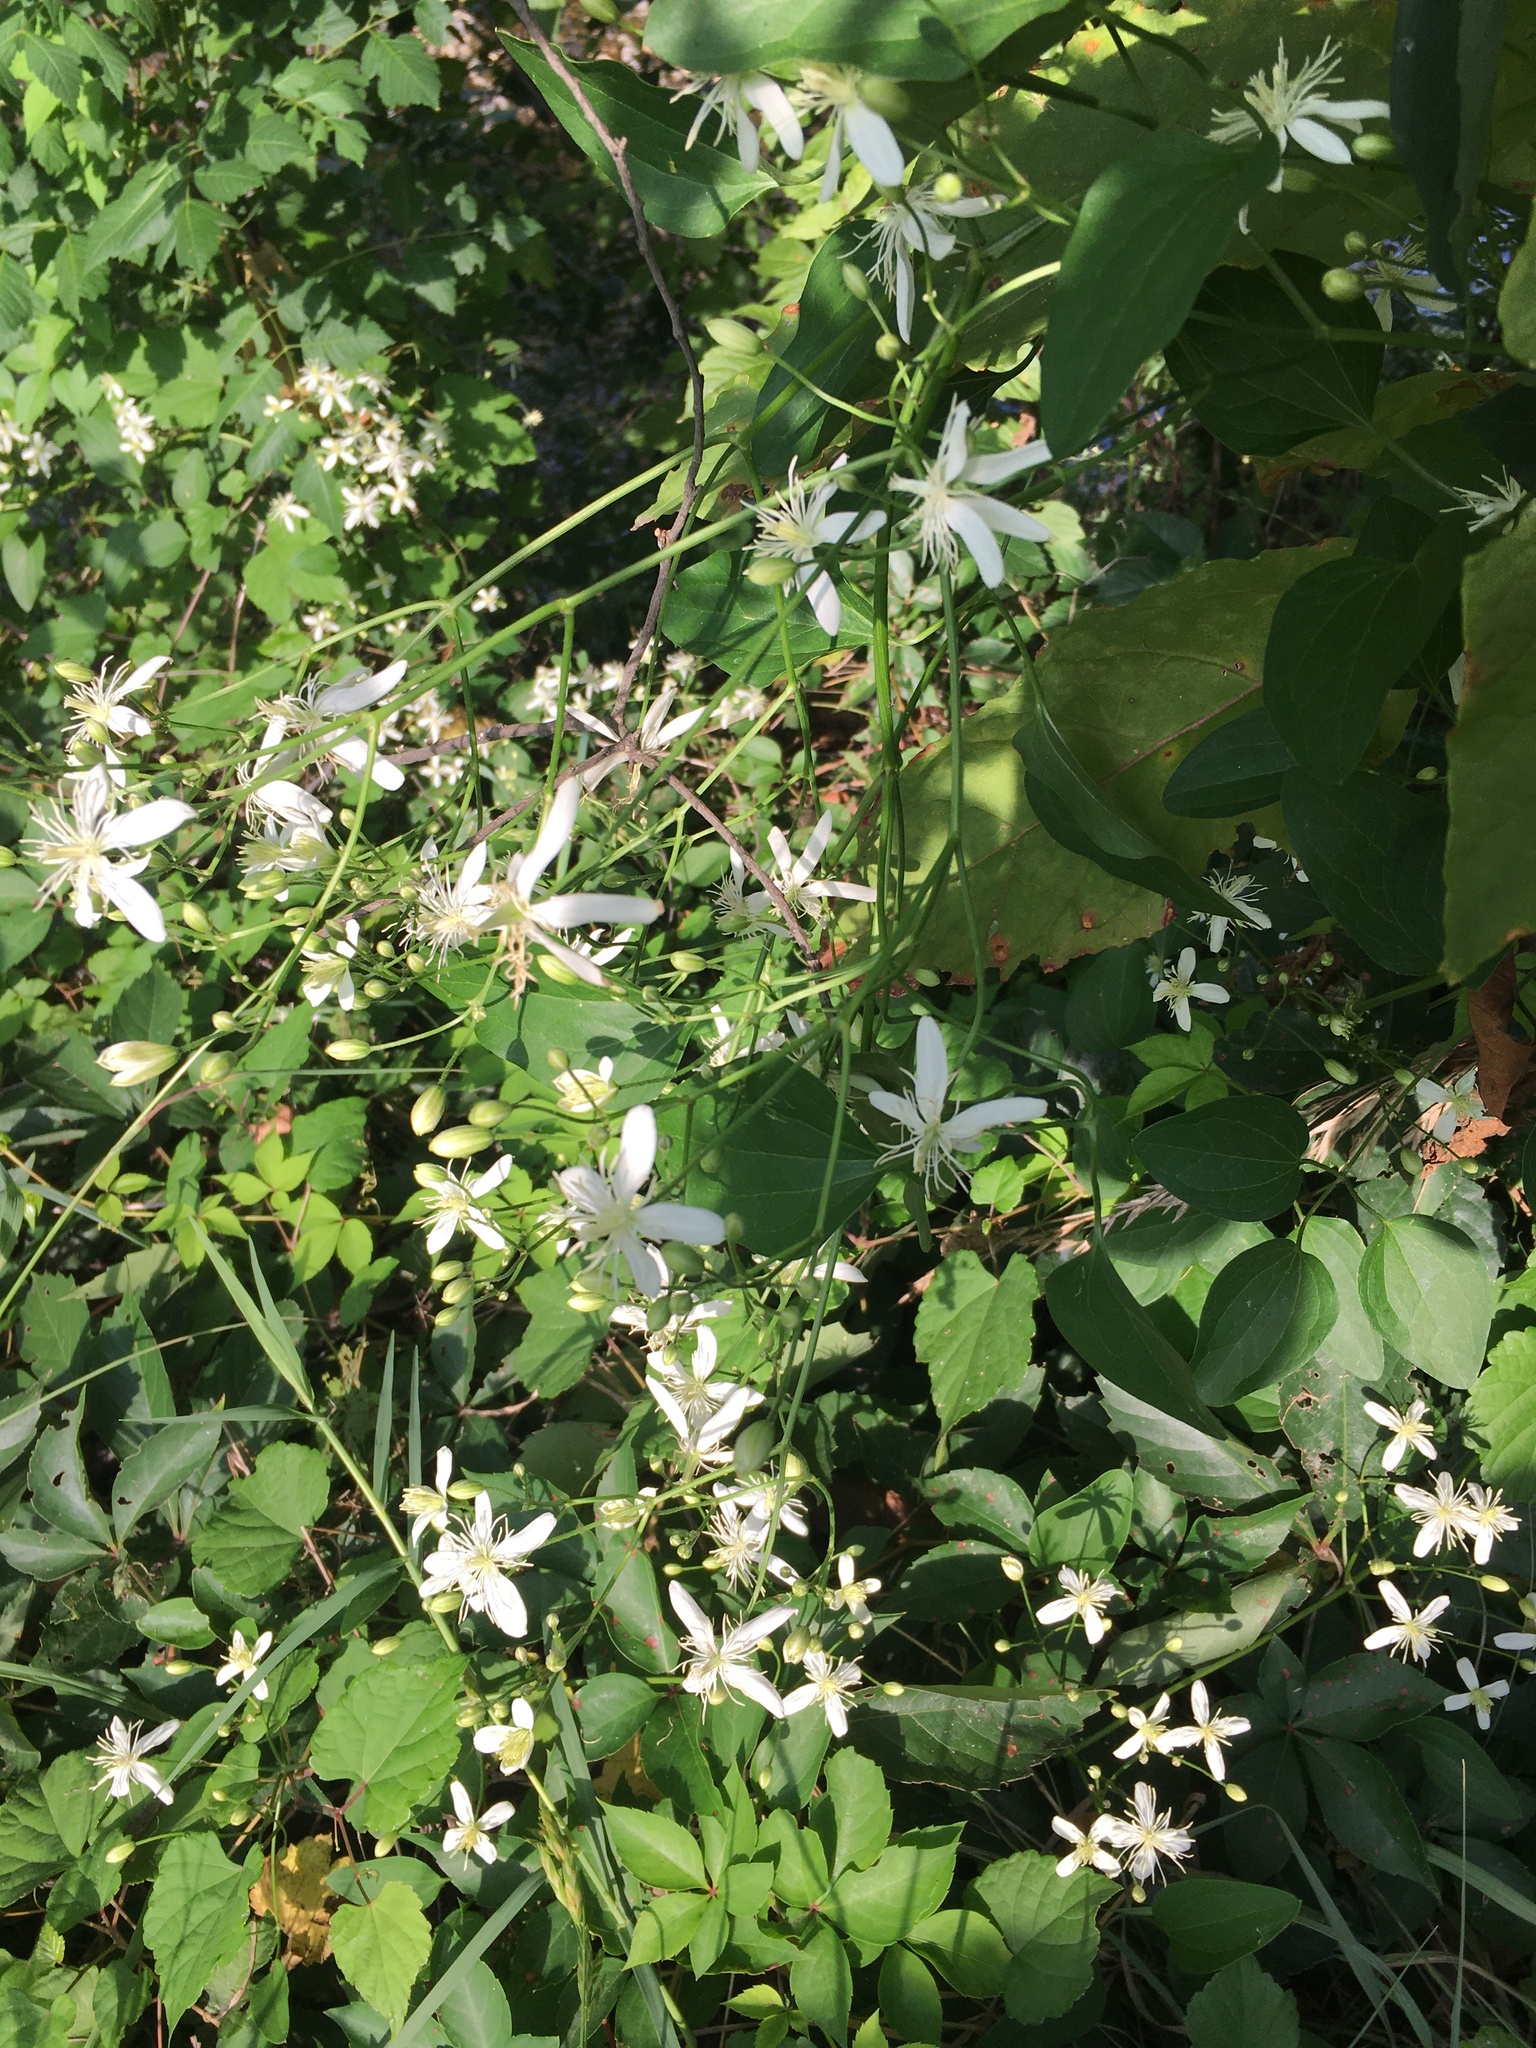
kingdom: Plantae
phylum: Tracheophyta
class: Magnoliopsida
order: Ranunculales
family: Ranunculaceae
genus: Clematis
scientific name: Clematis terniflora
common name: Sweet autumn clematis
